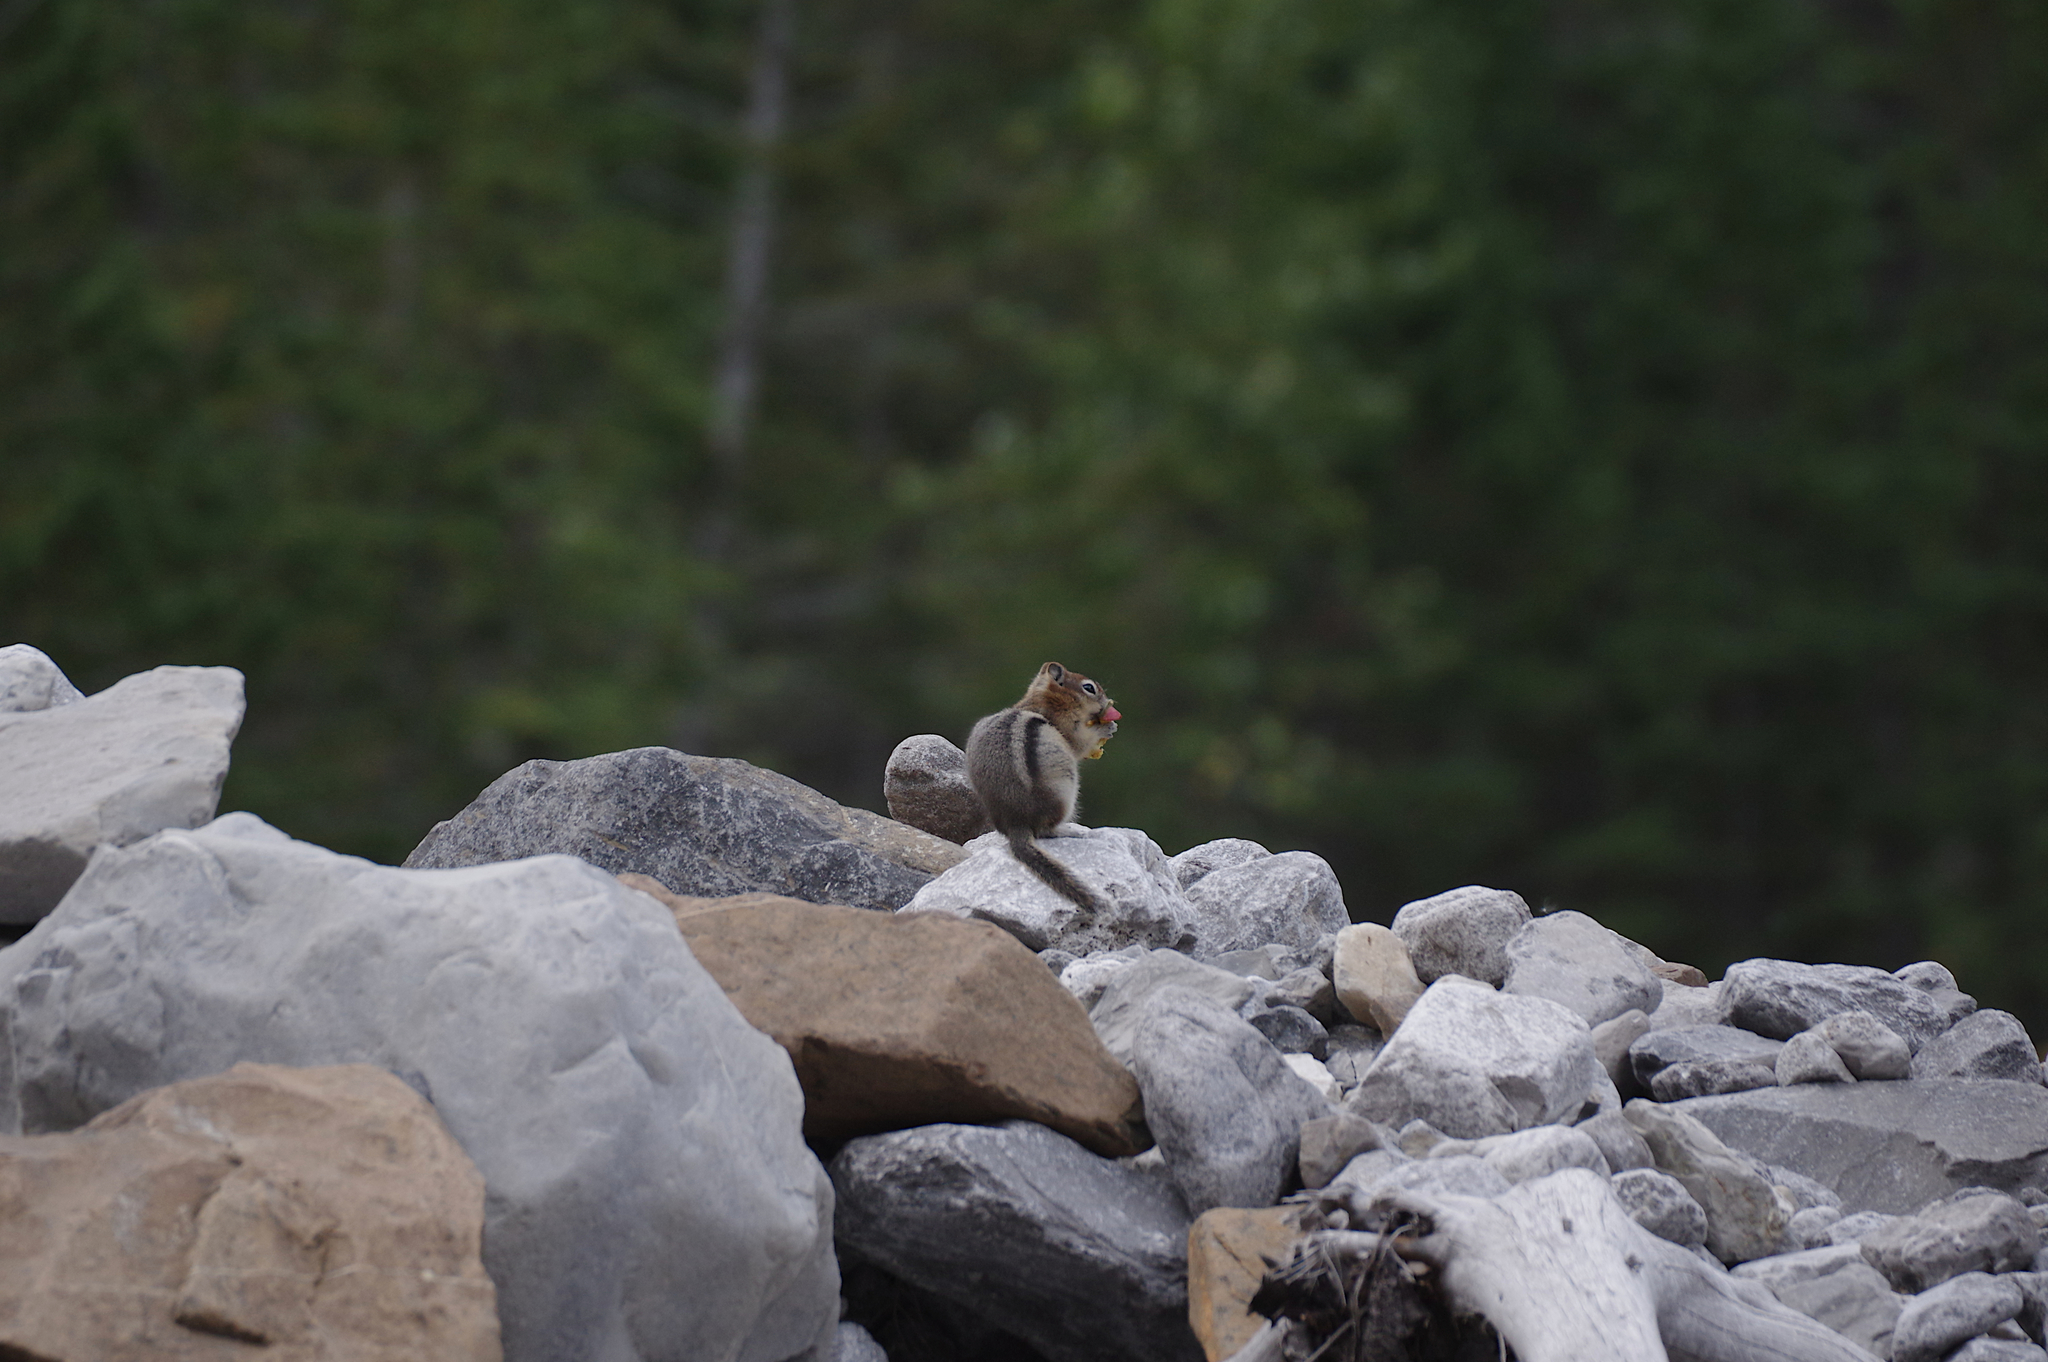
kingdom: Animalia
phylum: Chordata
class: Mammalia
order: Rodentia
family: Sciuridae
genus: Callospermophilus
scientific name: Callospermophilus lateralis
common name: Golden-mantled ground squirrel
